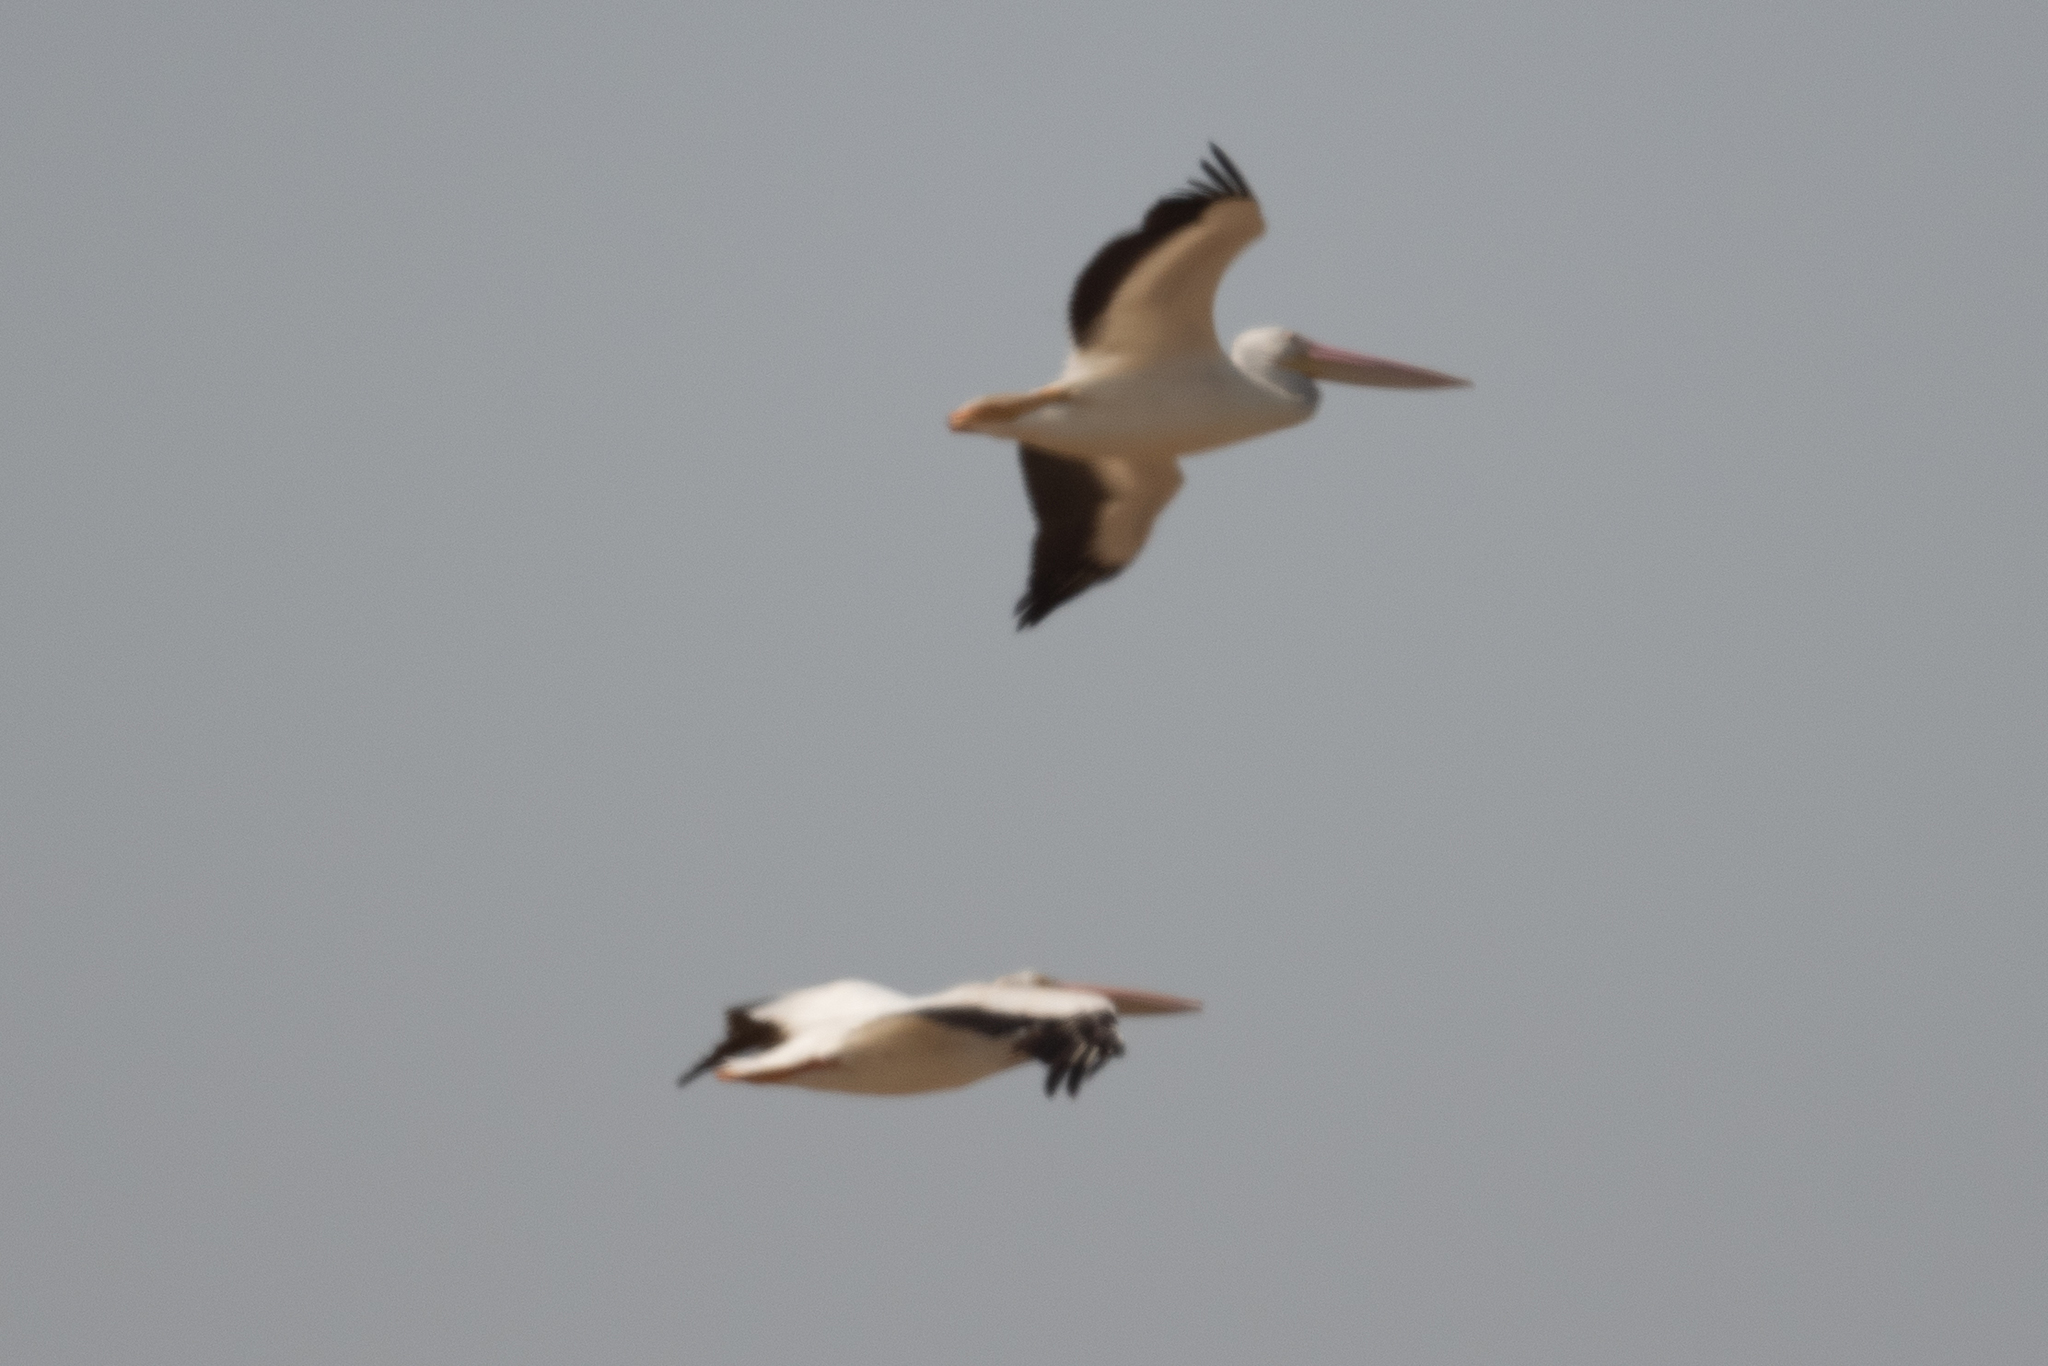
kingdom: Animalia
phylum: Chordata
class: Aves
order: Pelecaniformes
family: Pelecanidae
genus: Pelecanus
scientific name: Pelecanus erythrorhynchos
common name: American white pelican
